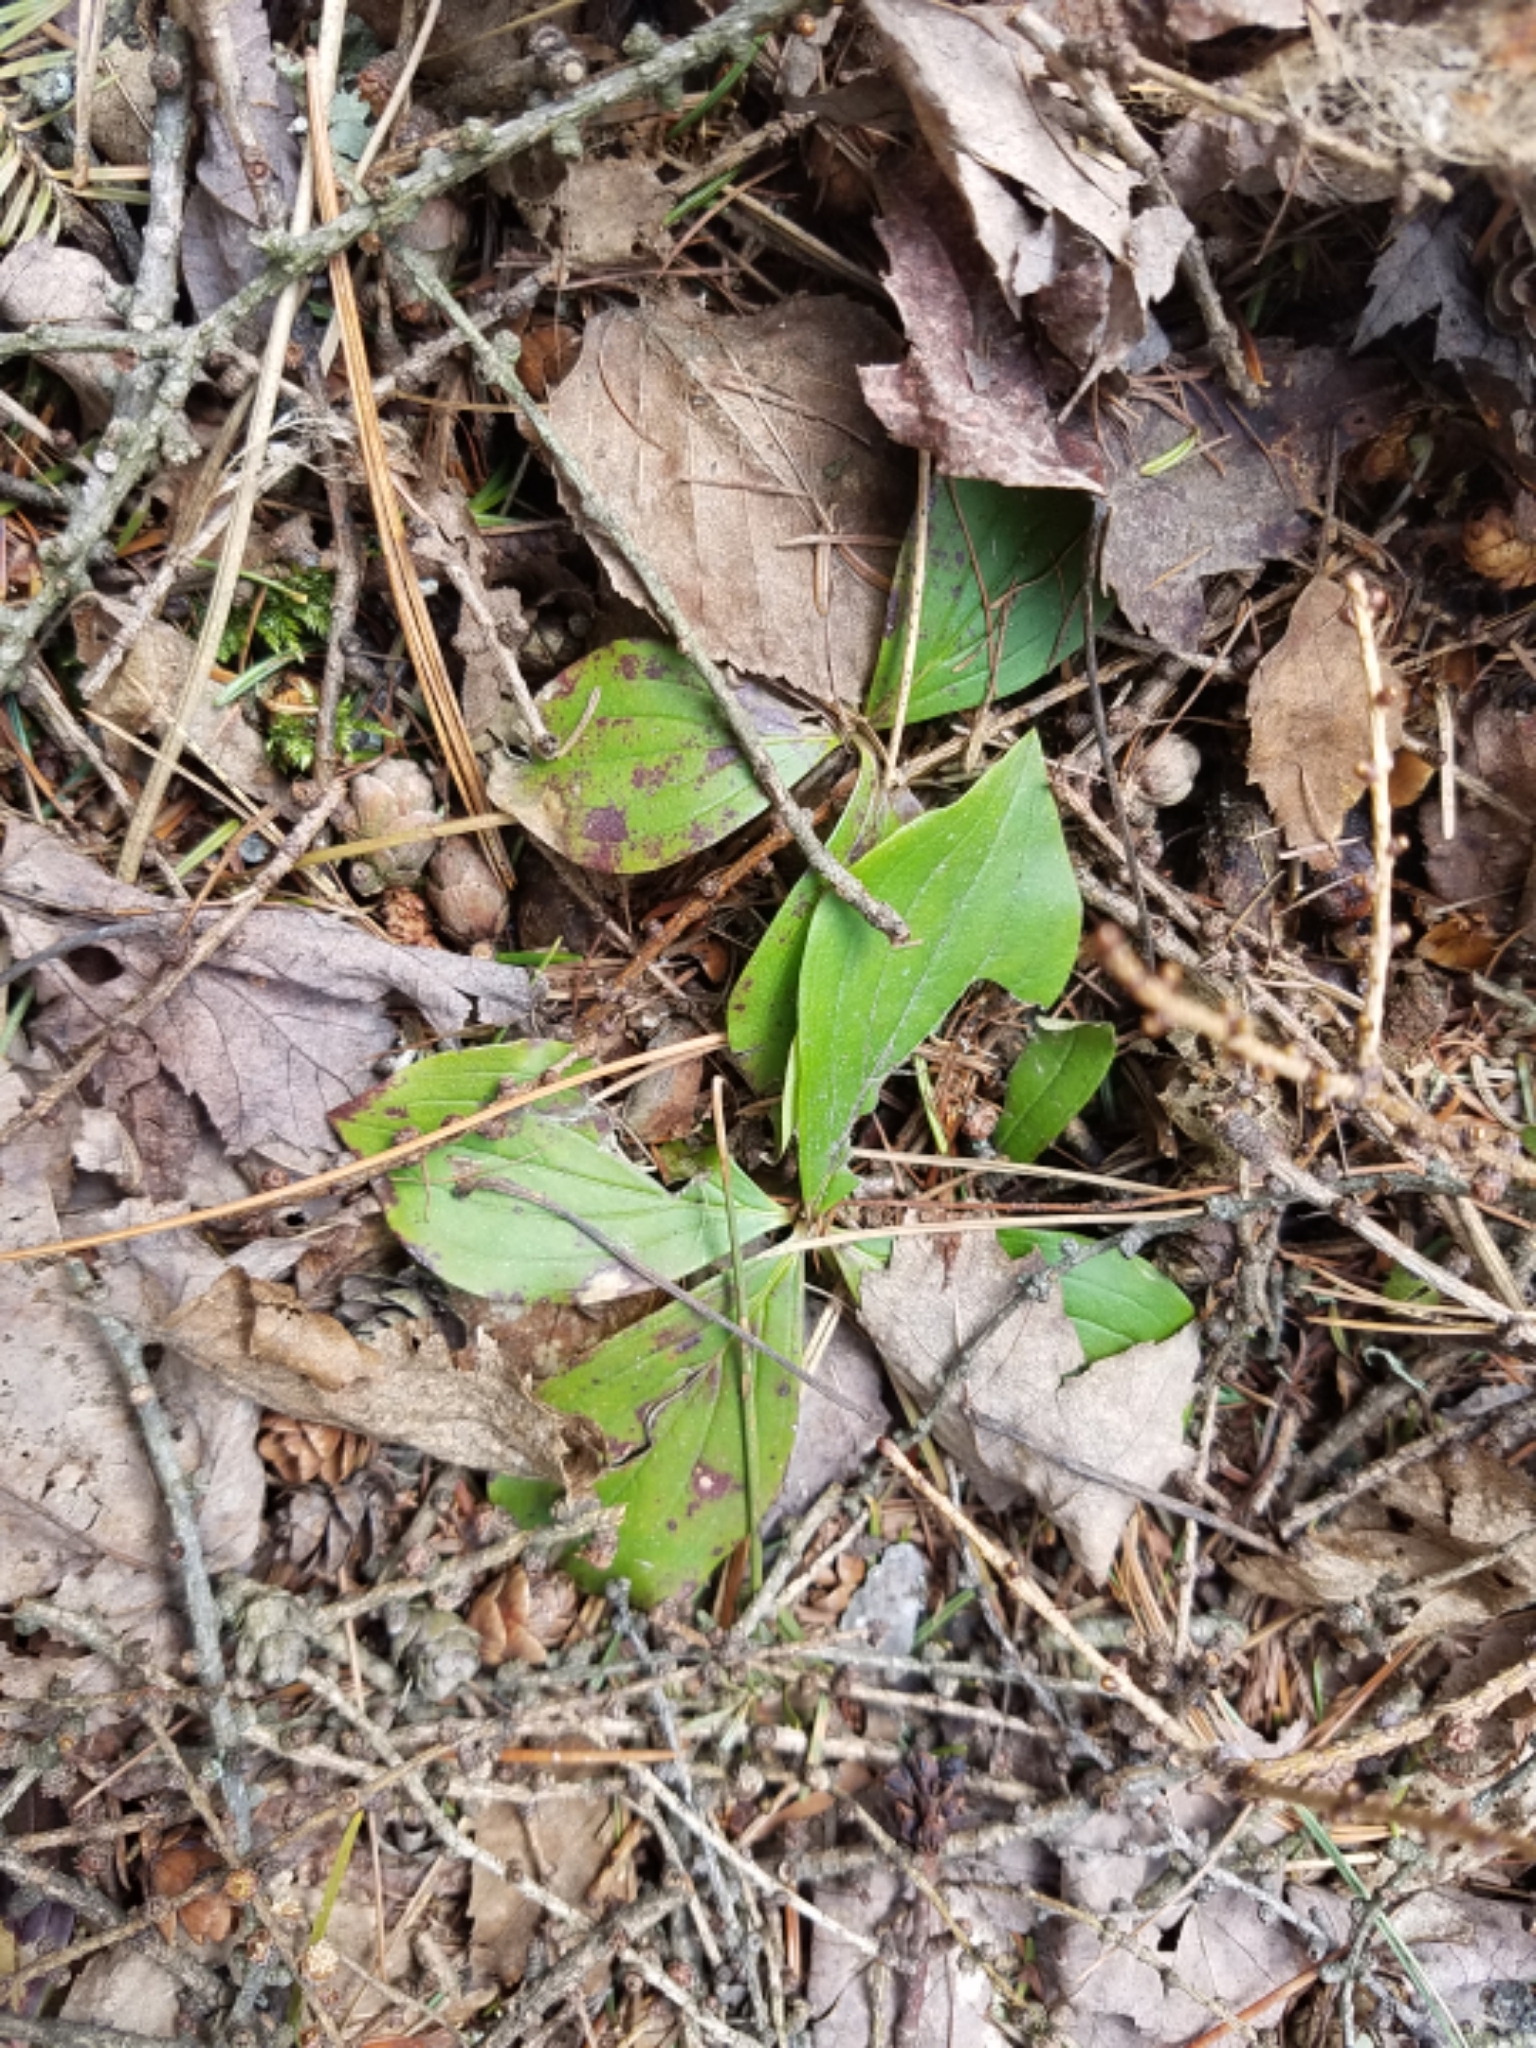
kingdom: Plantae
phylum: Tracheophyta
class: Magnoliopsida
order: Cornales
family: Cornaceae
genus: Cornus
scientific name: Cornus canadensis
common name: Creeping dogwood
